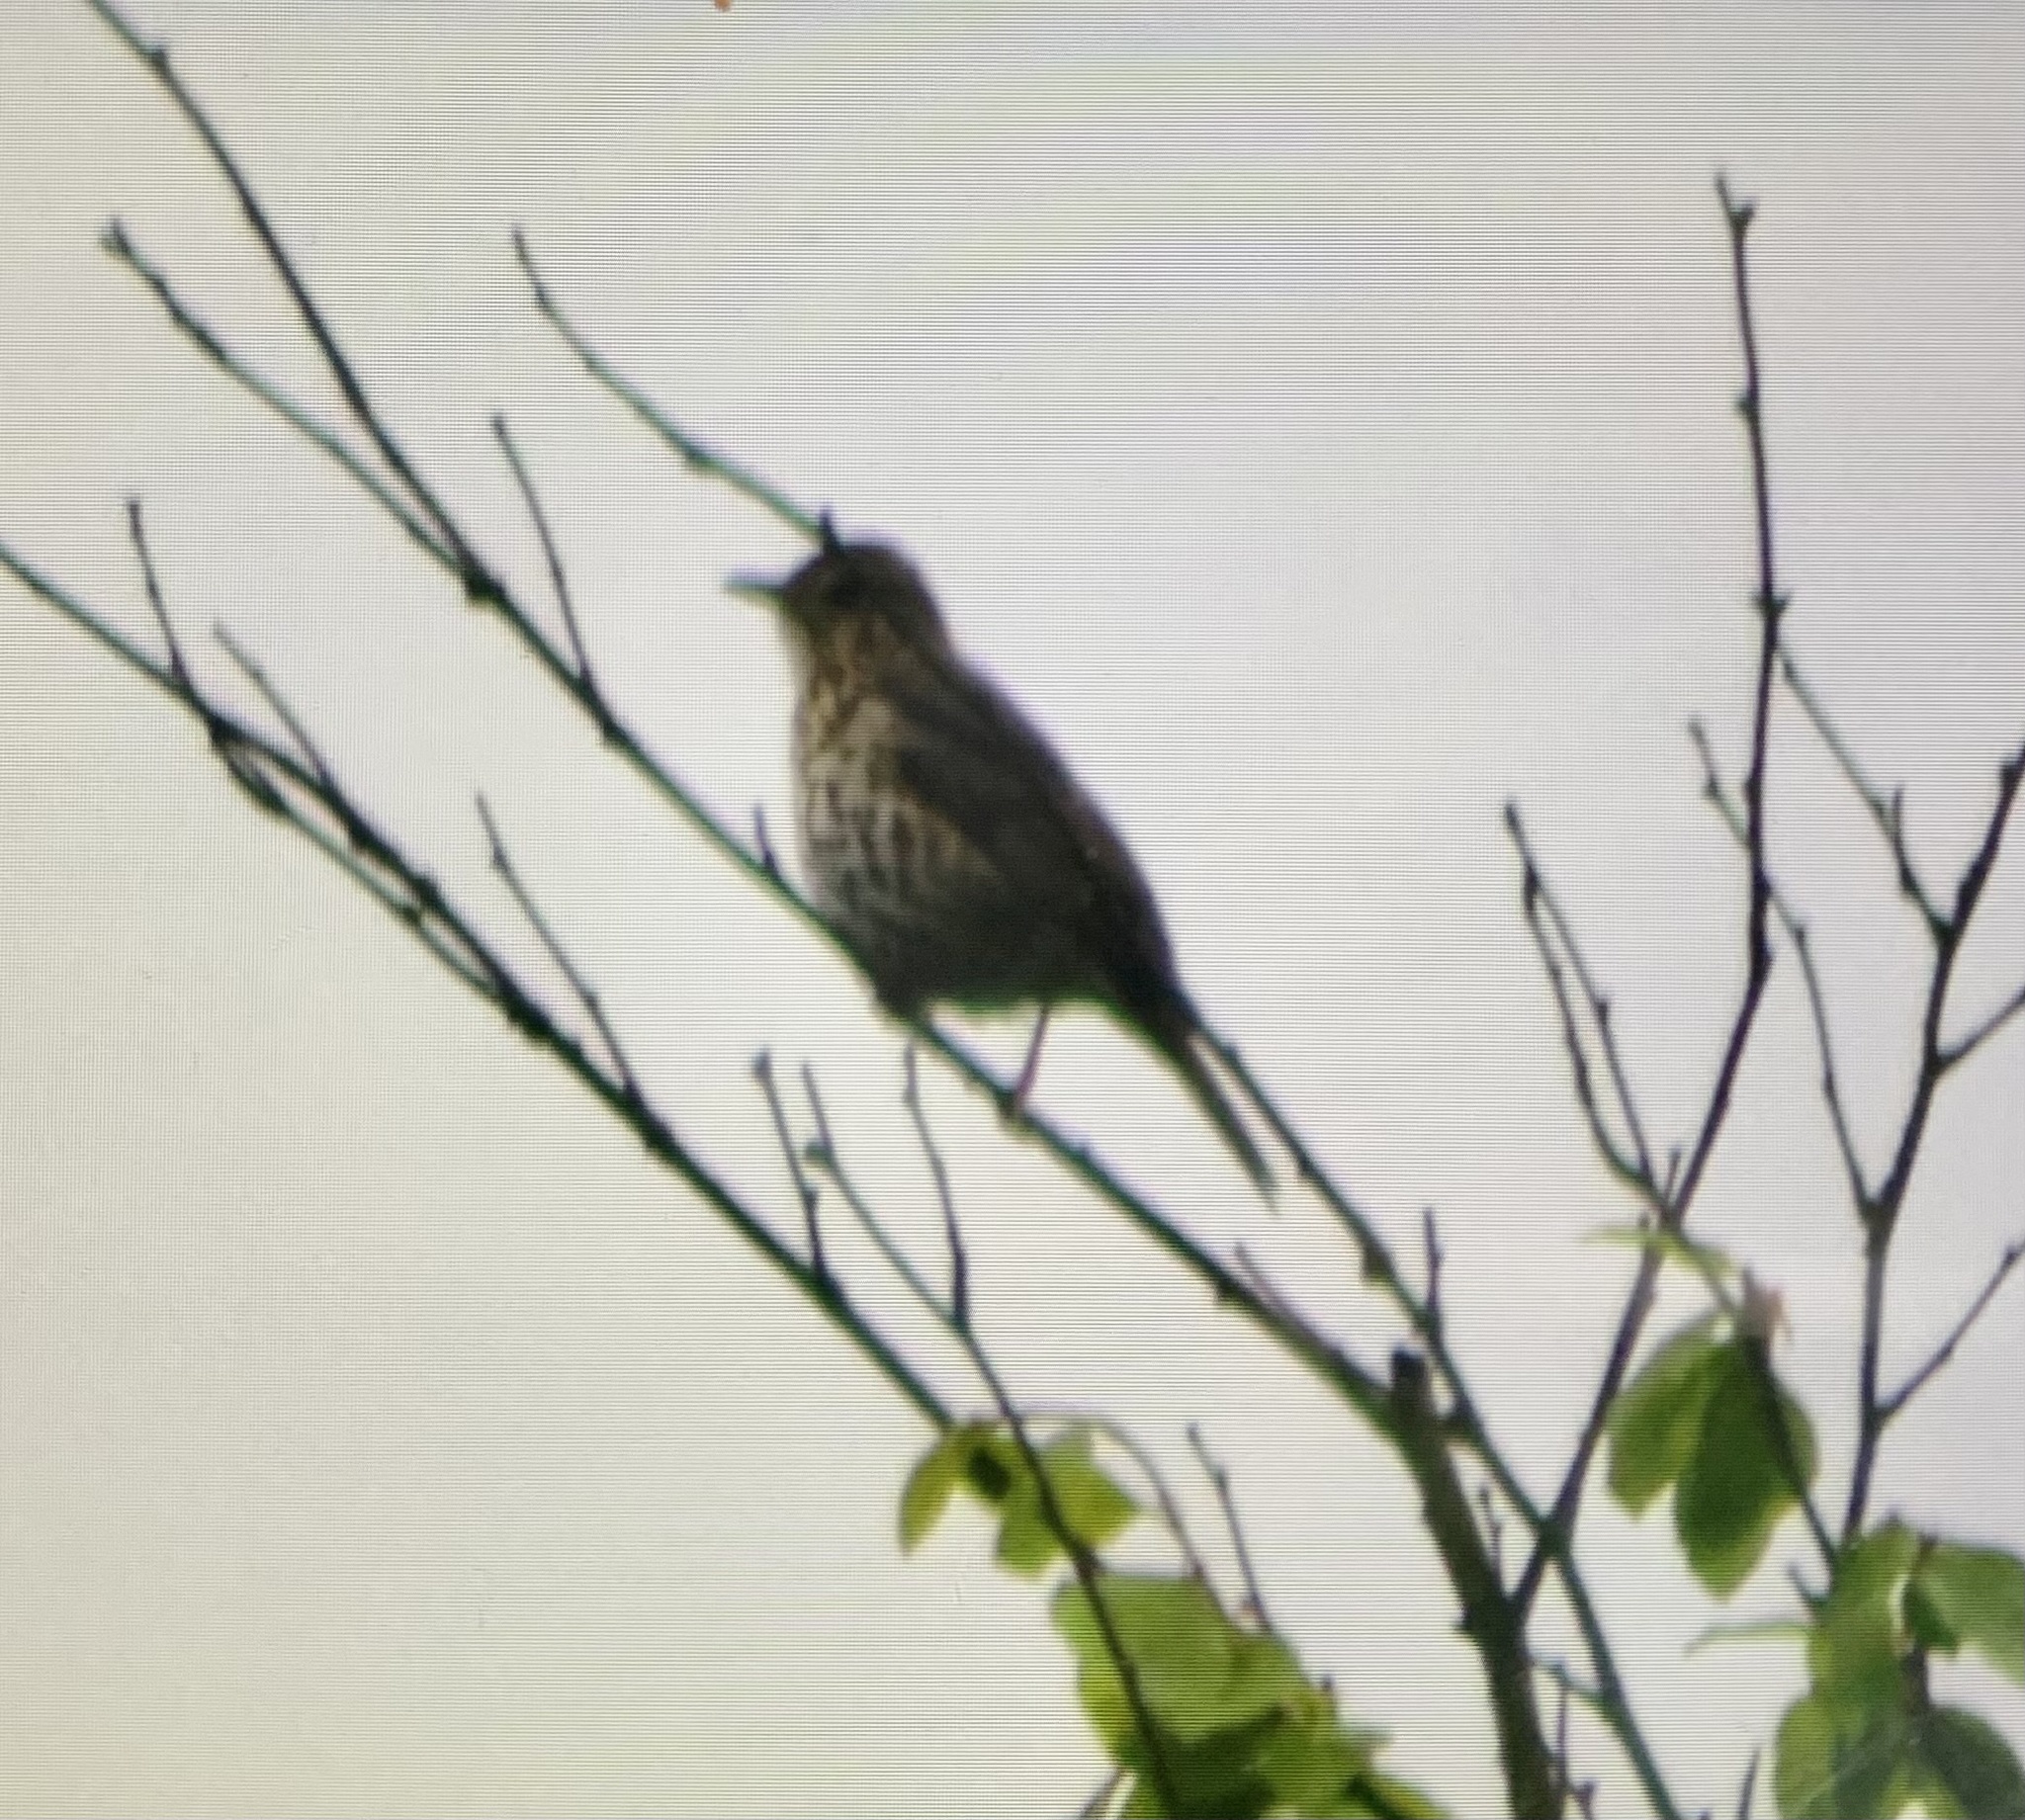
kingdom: Animalia
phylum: Chordata
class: Aves
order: Passeriformes
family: Turdidae
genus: Turdus
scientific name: Turdus philomelos
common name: Song thrush
